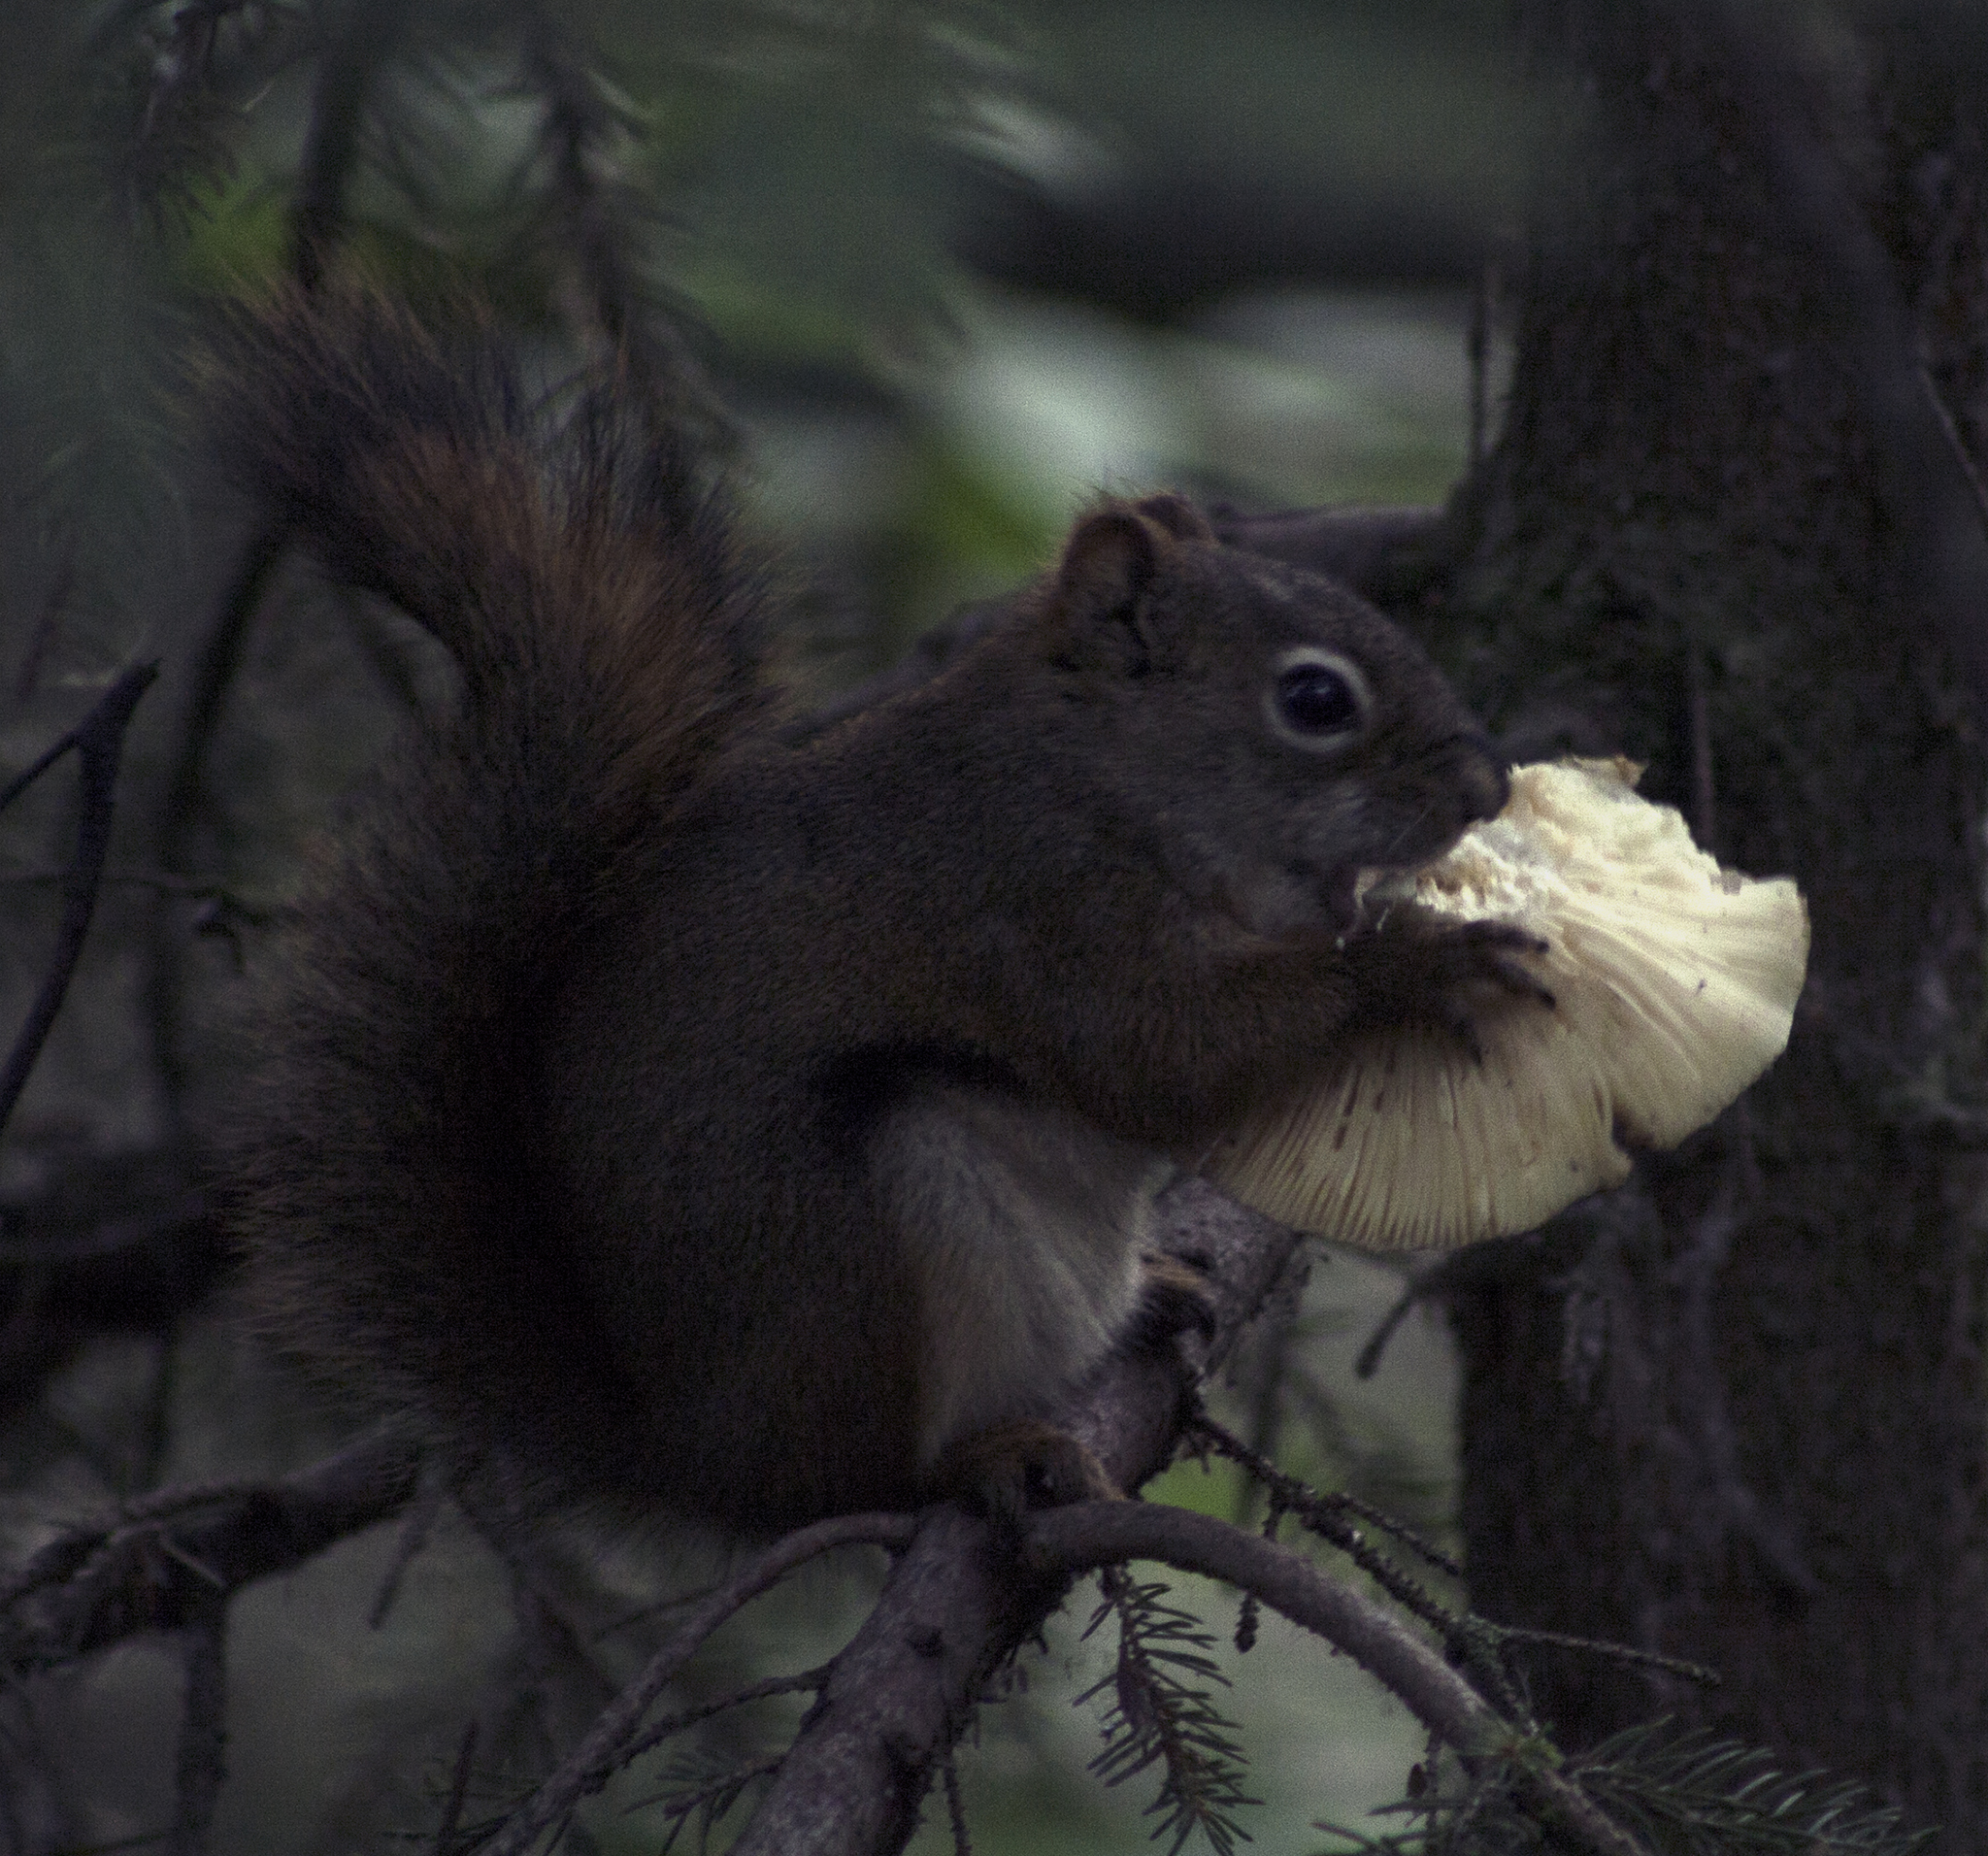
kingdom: Animalia
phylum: Chordata
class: Mammalia
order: Rodentia
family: Sciuridae
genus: Tamiasciurus
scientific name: Tamiasciurus hudsonicus
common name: Red squirrel
